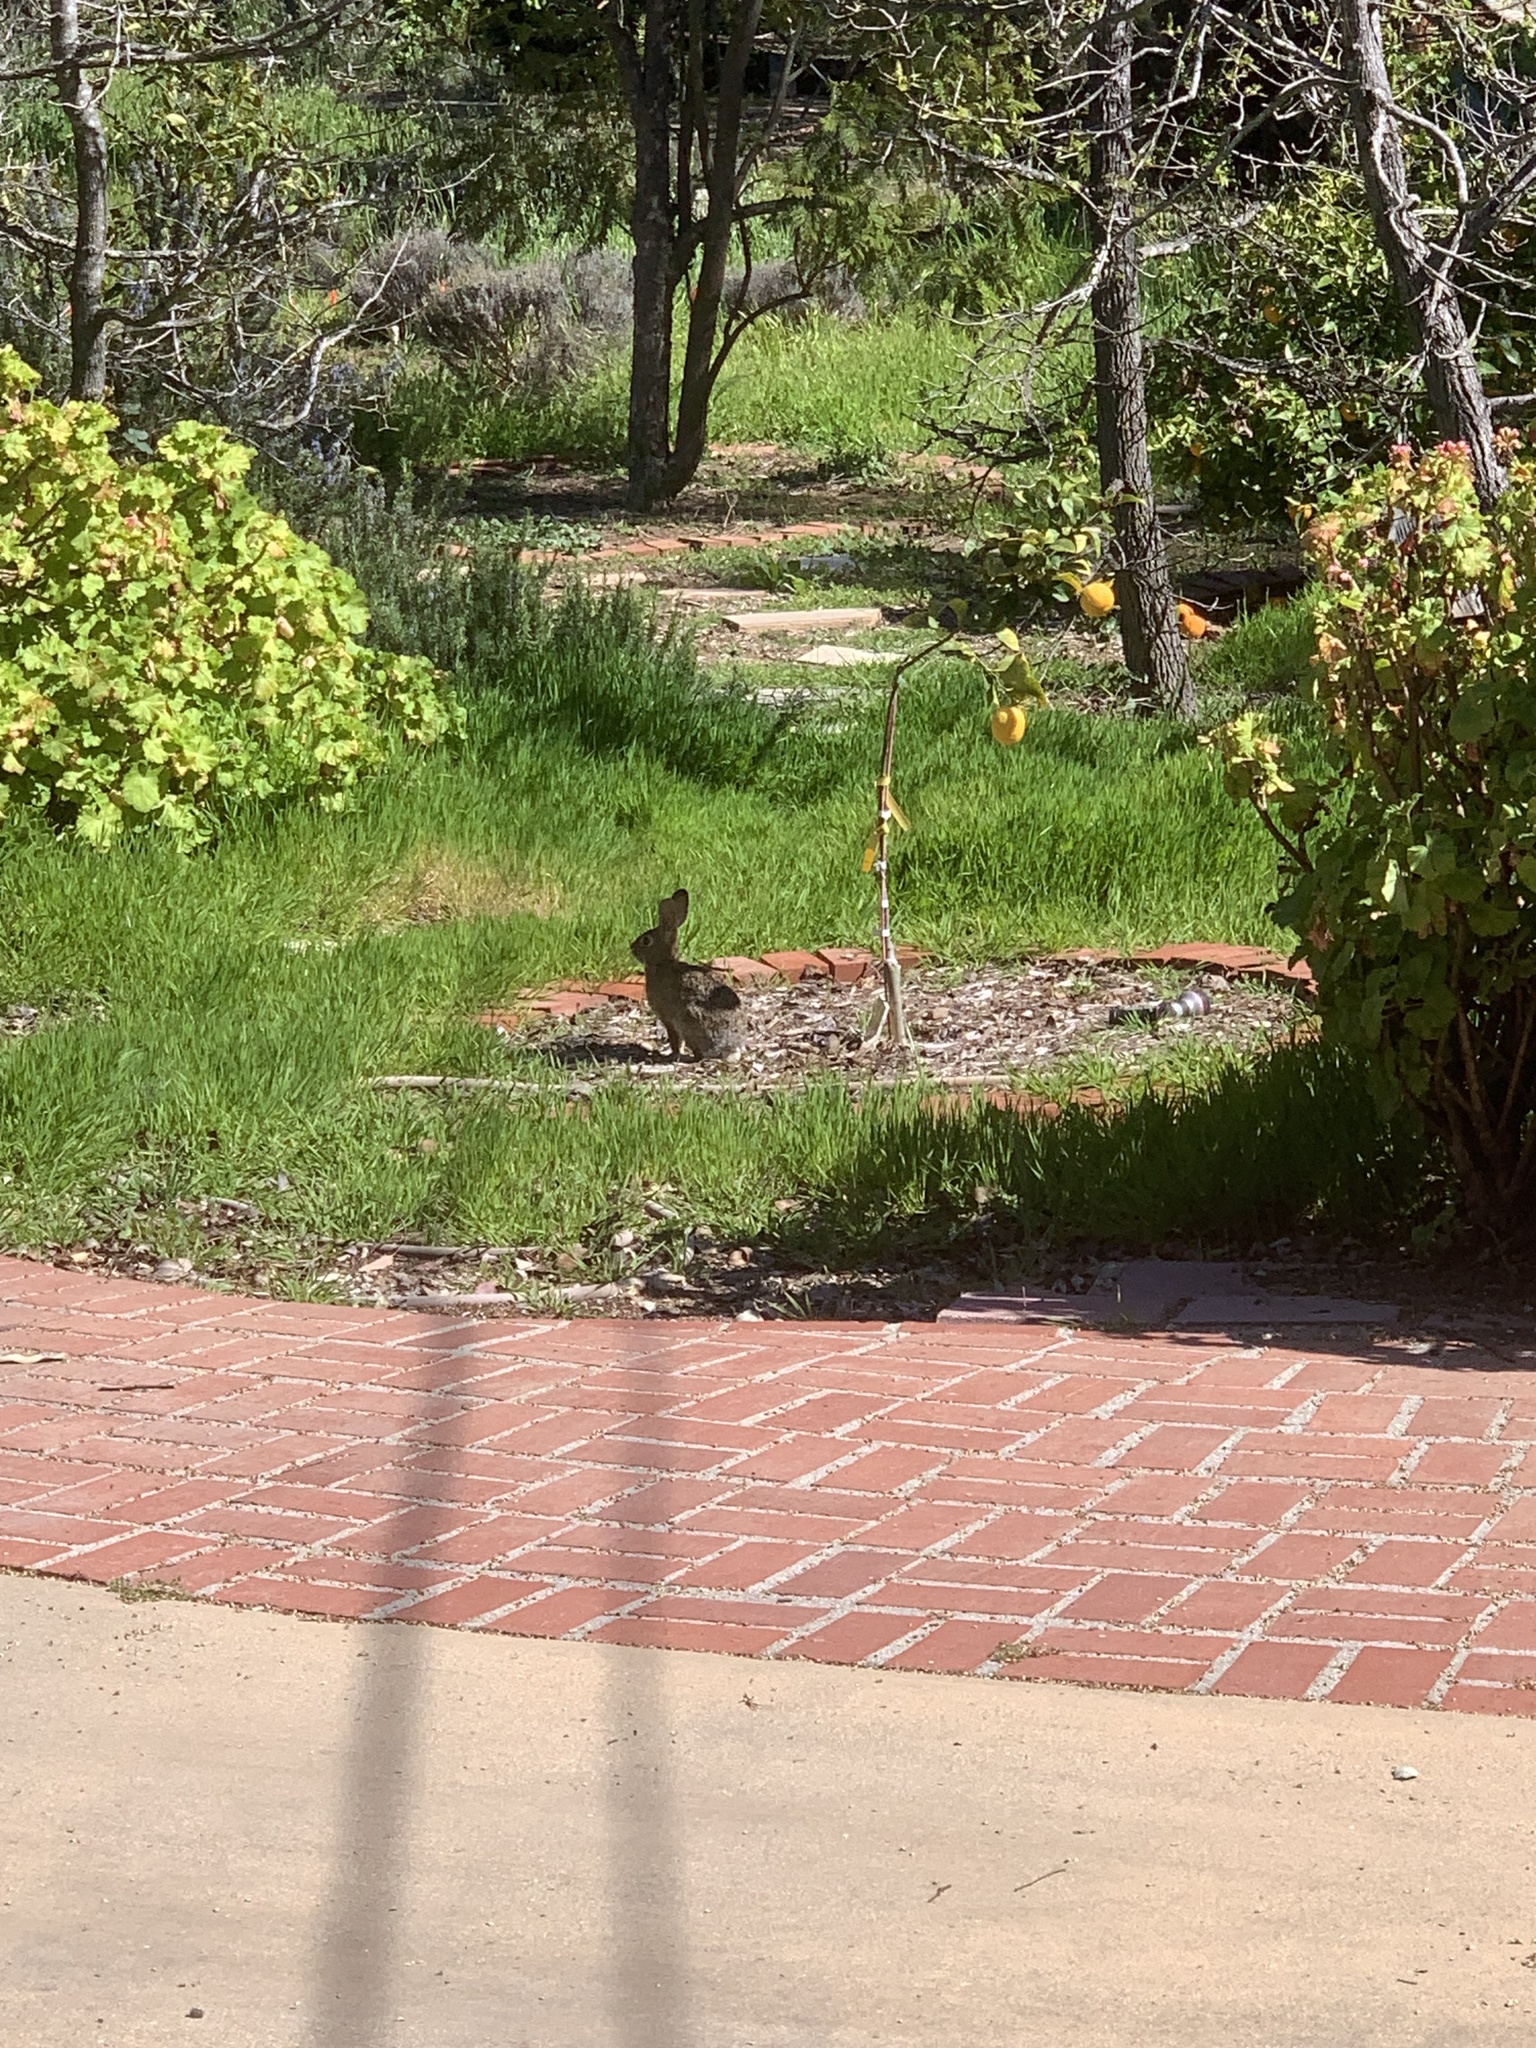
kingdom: Animalia
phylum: Chordata
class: Mammalia
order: Lagomorpha
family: Leporidae
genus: Sylvilagus
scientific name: Sylvilagus audubonii
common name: Desert cottontail
